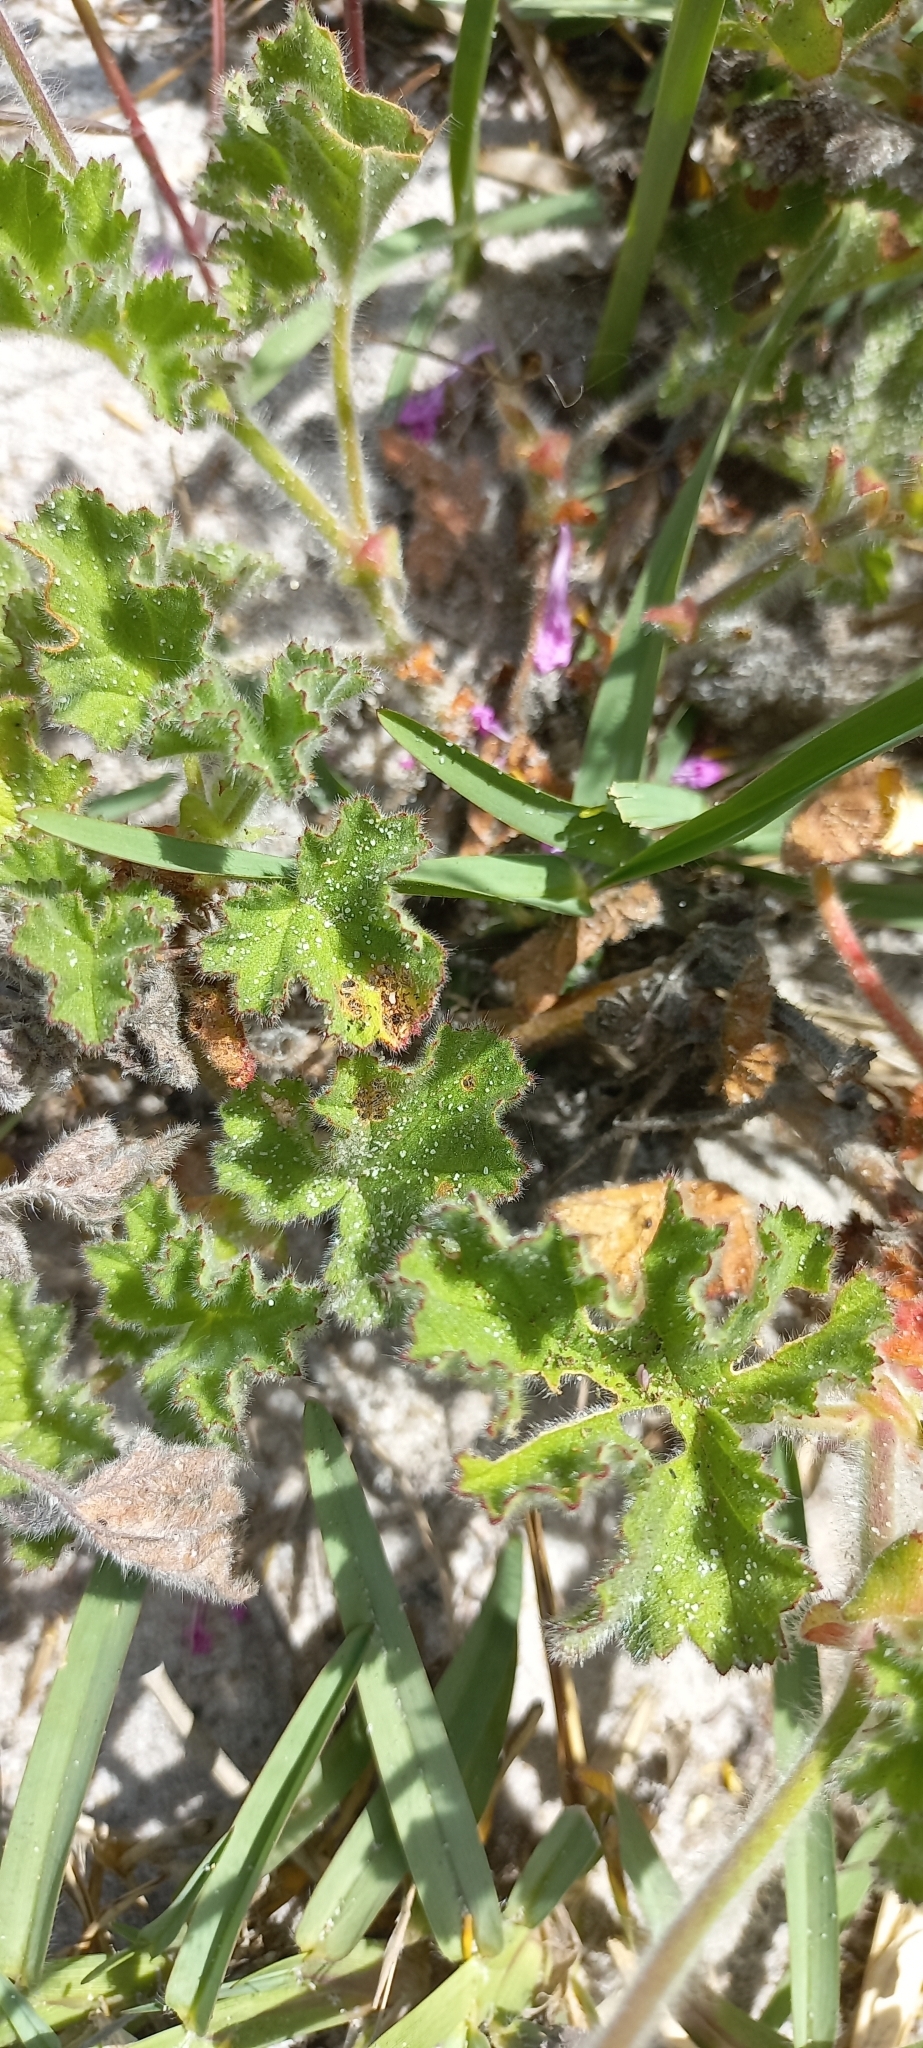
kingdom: Plantae
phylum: Tracheophyta
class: Magnoliopsida
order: Geraniales
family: Geraniaceae
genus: Pelargonium
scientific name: Pelargonium capitatum
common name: Rose scented geranium
